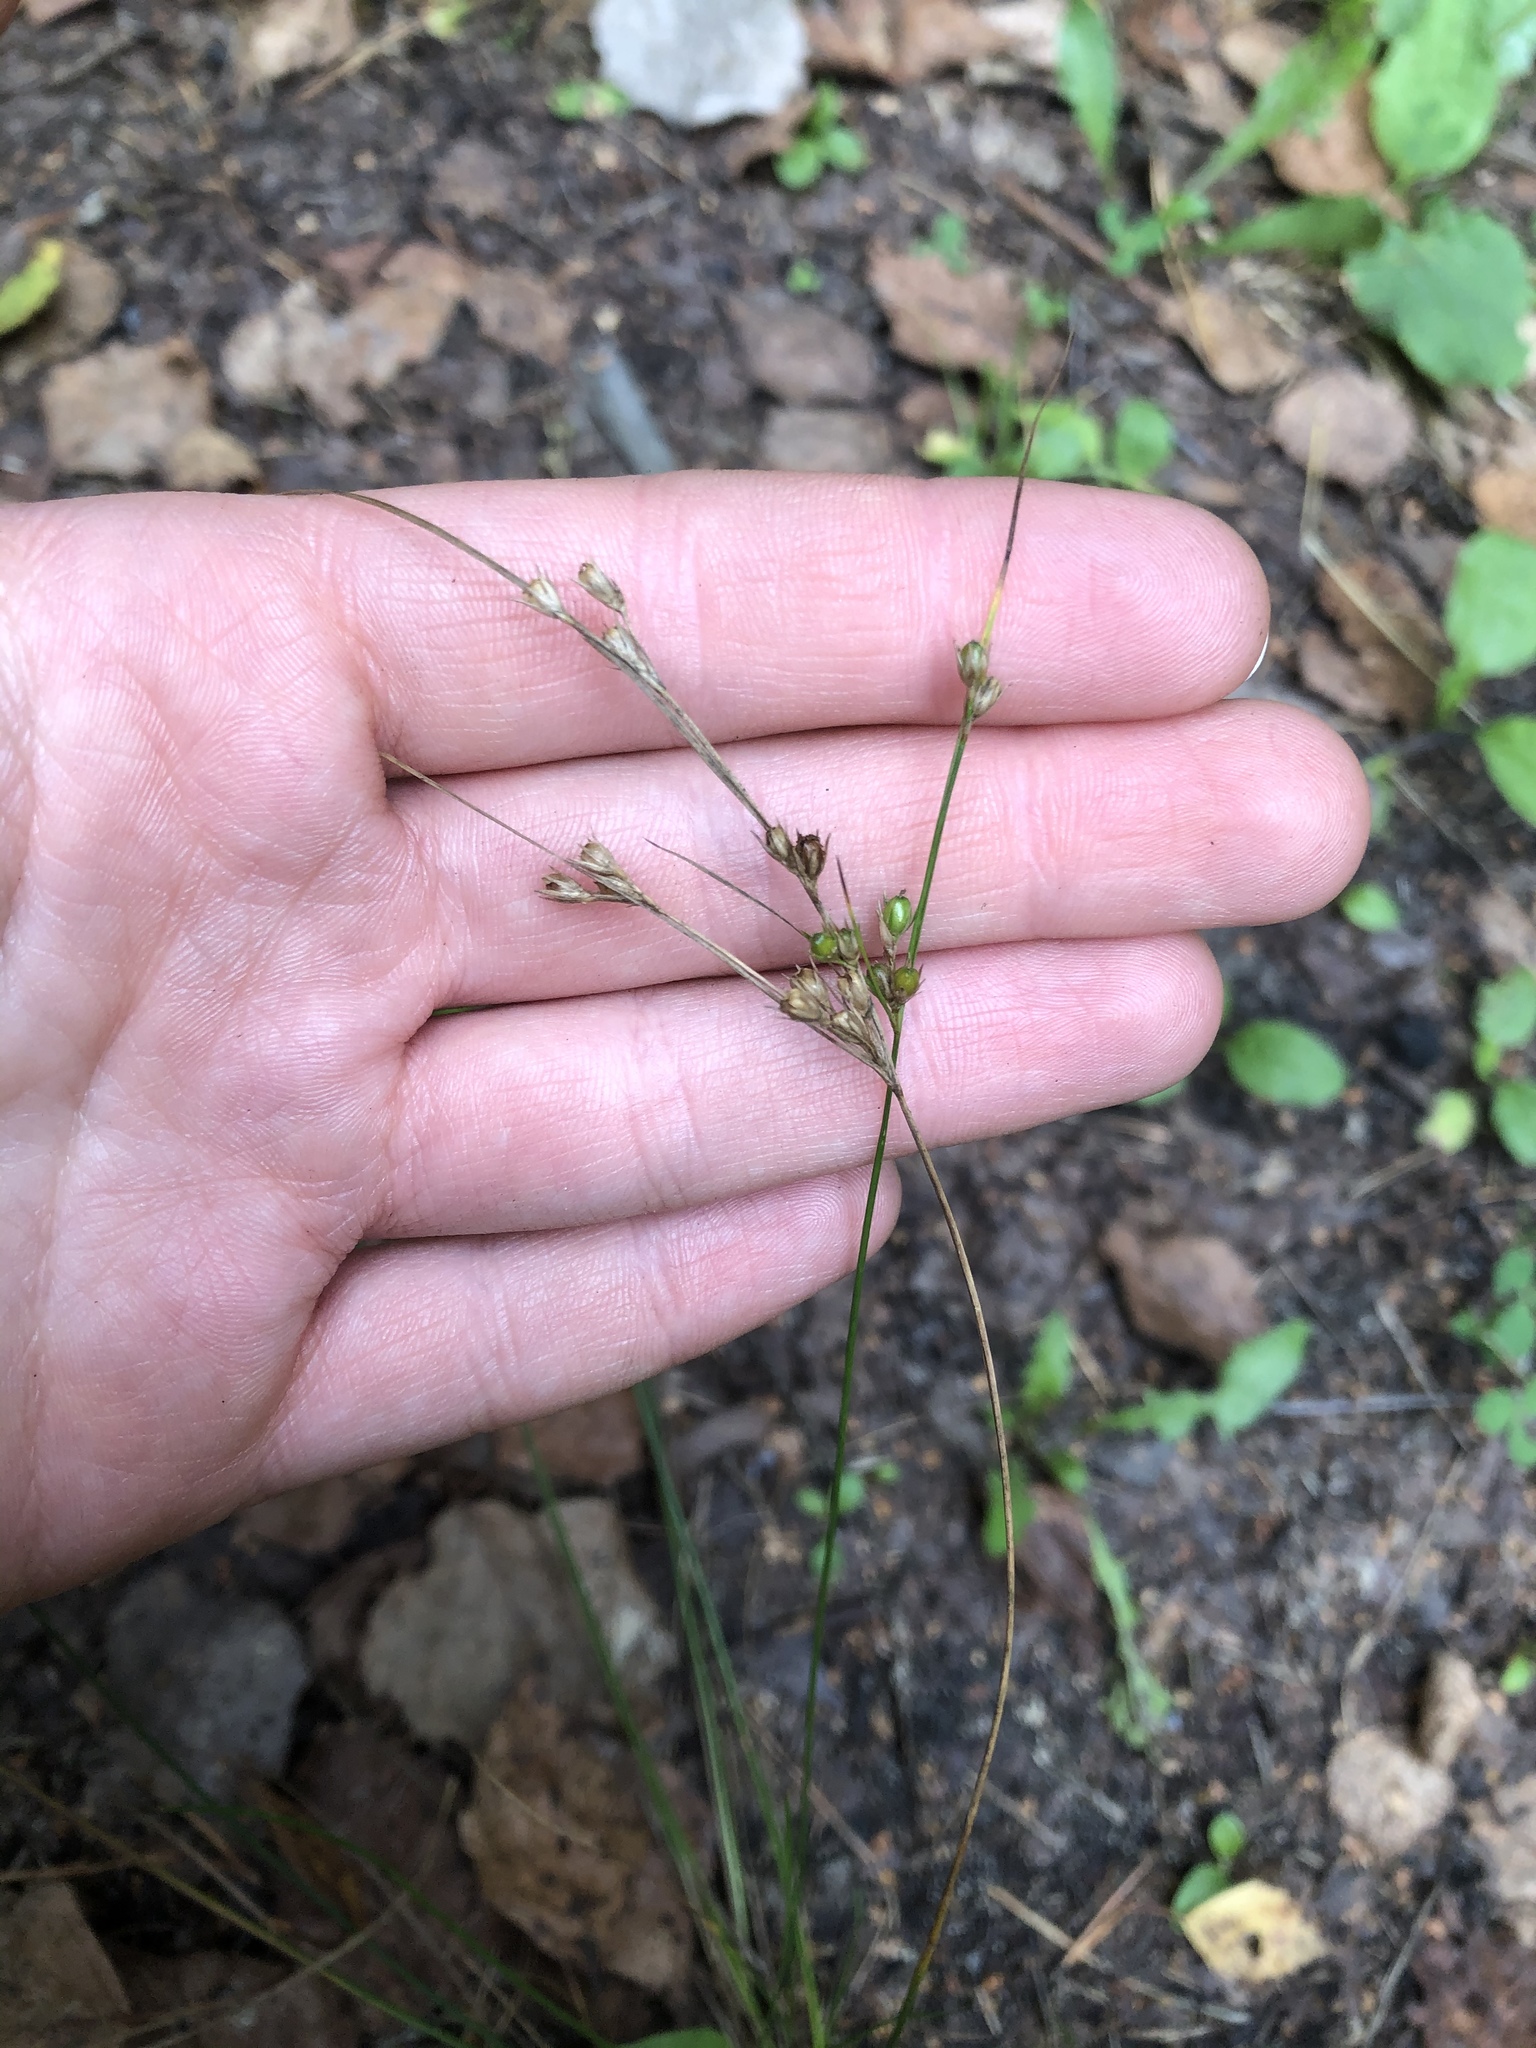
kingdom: Plantae
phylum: Tracheophyta
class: Liliopsida
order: Poales
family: Juncaceae
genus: Juncus
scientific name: Juncus tenuis
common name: Slender rush
